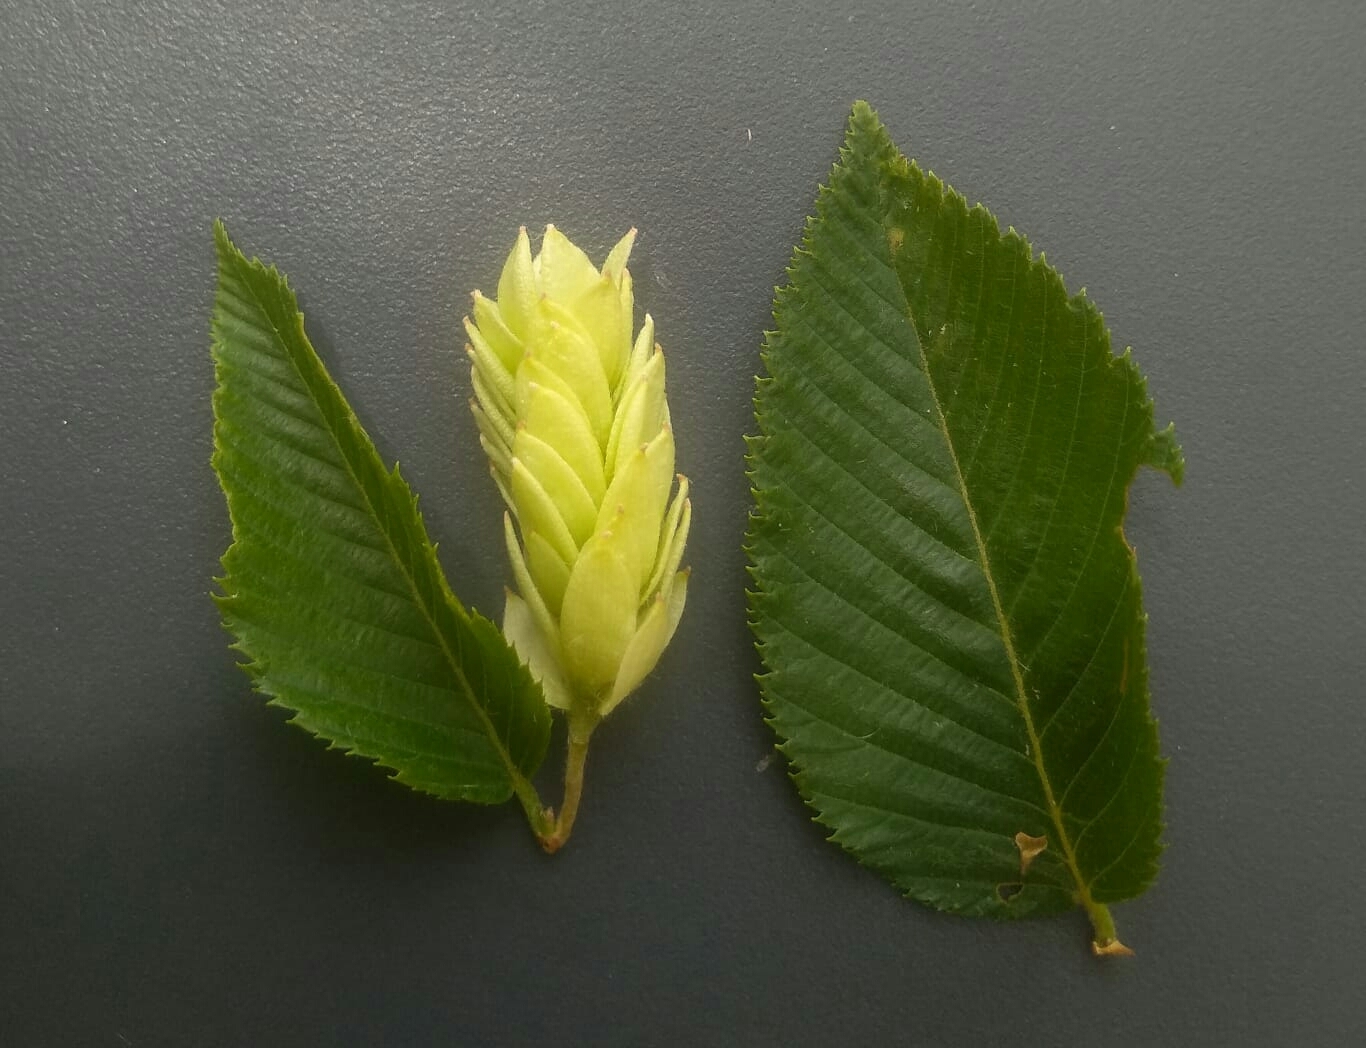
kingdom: Plantae
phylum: Tracheophyta
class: Magnoliopsida
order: Fagales
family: Betulaceae
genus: Ostrya
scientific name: Ostrya carpinifolia
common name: European hop-hornbeam
